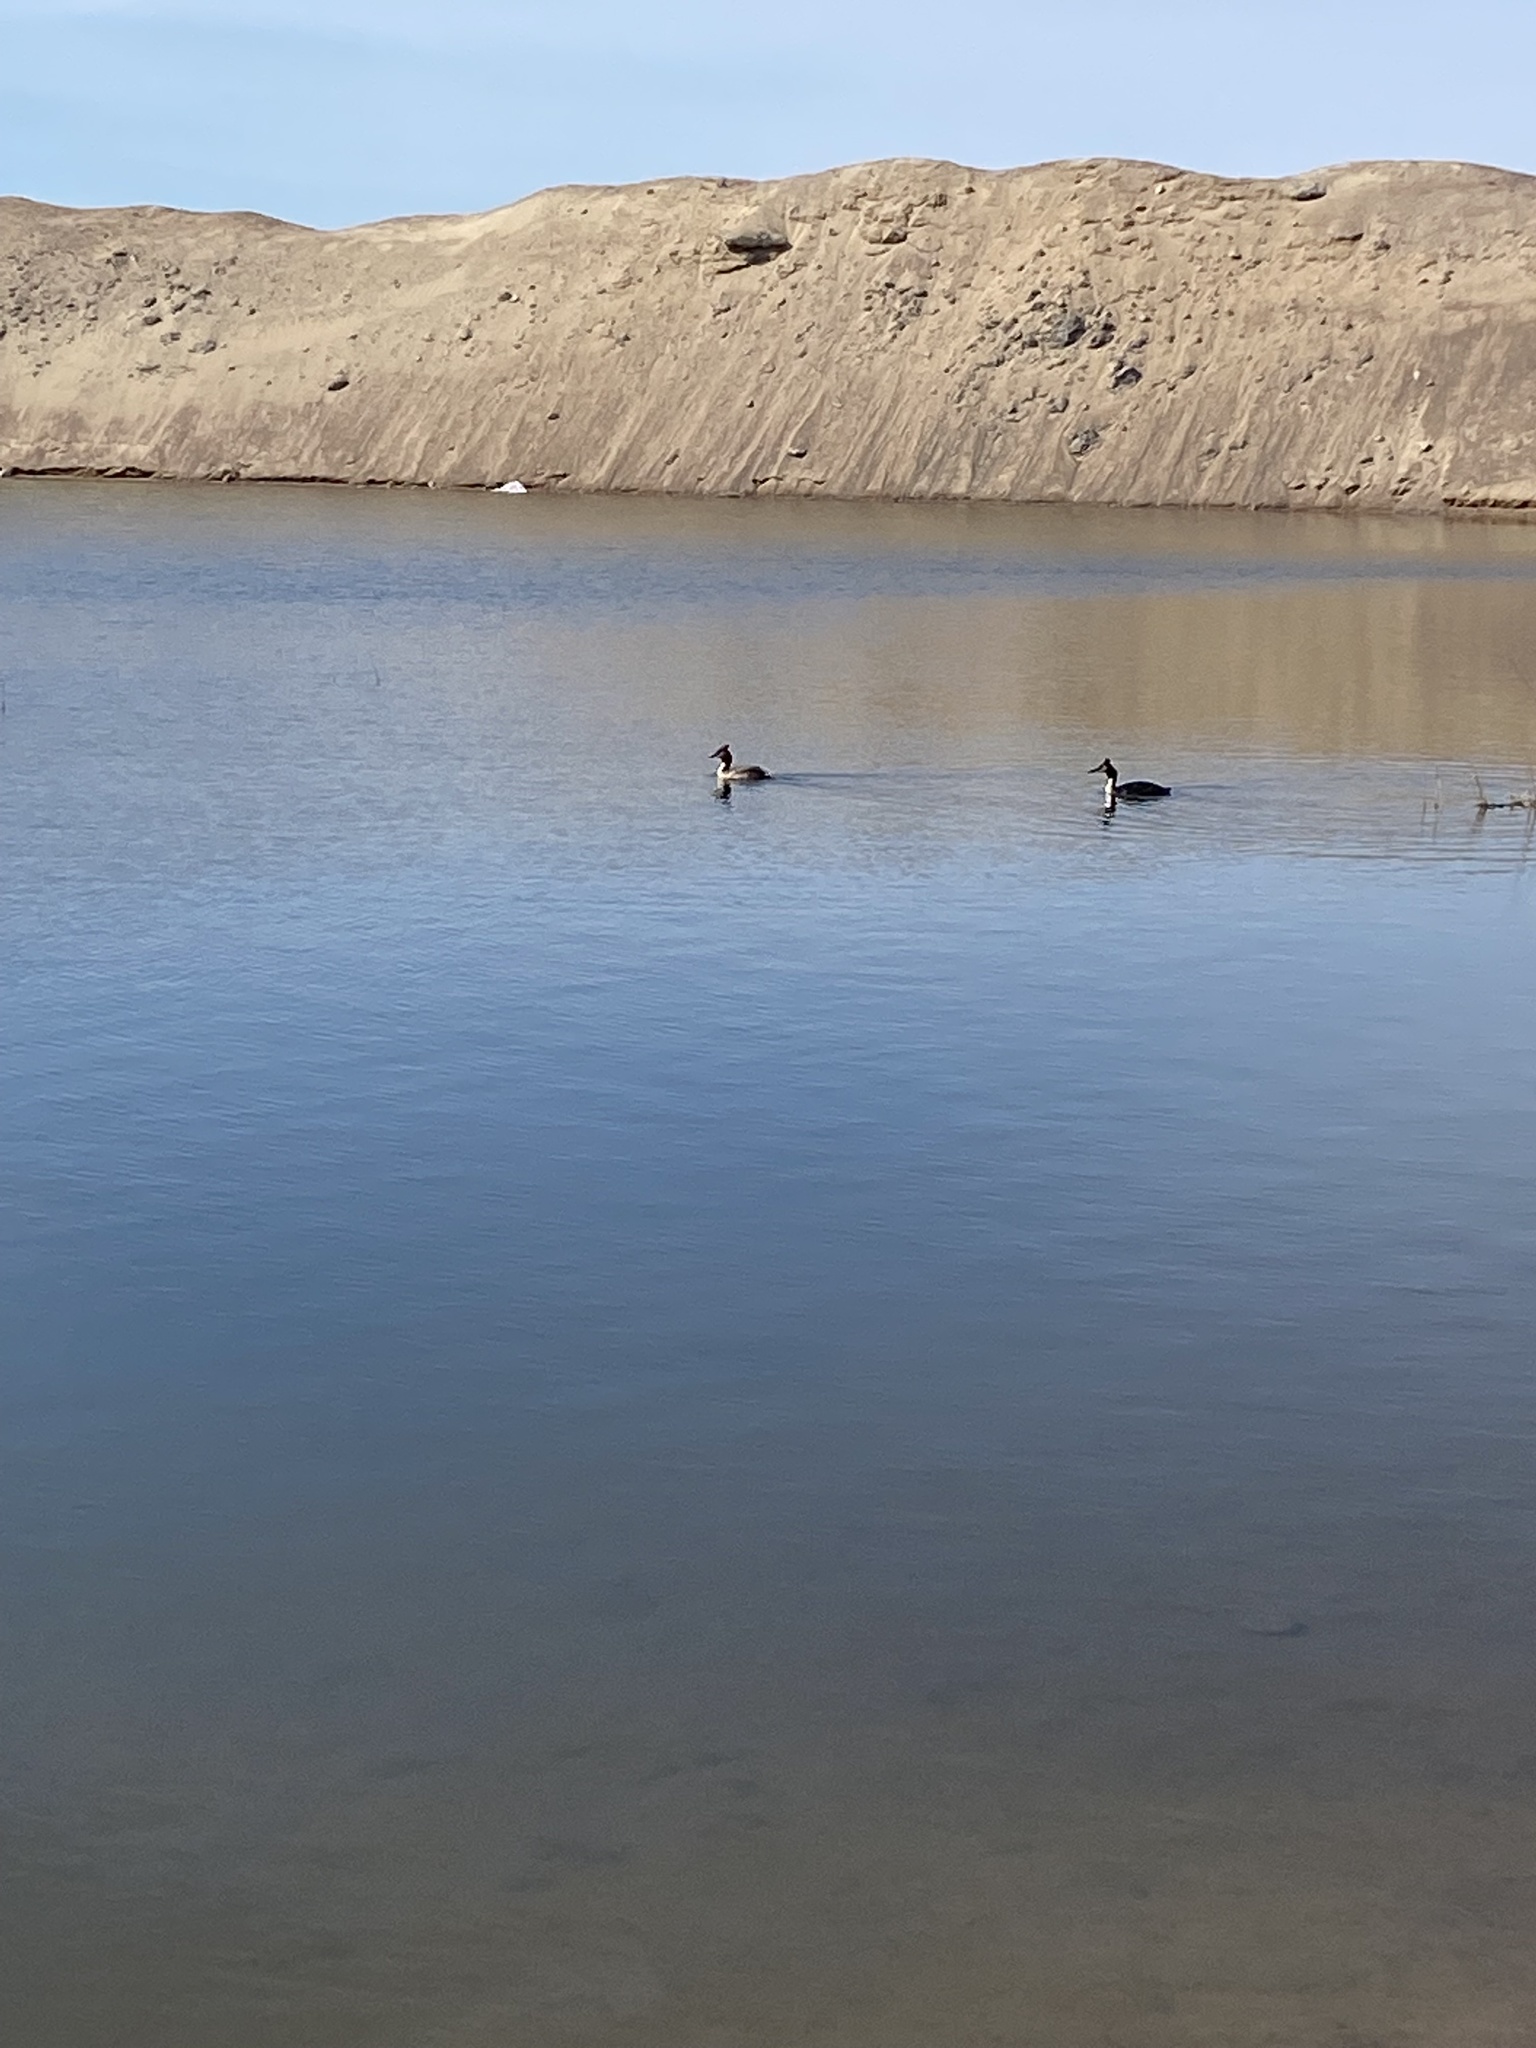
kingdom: Animalia
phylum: Chordata
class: Aves
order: Podicipediformes
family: Podicipedidae
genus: Podiceps
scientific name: Podiceps cristatus
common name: Great crested grebe
